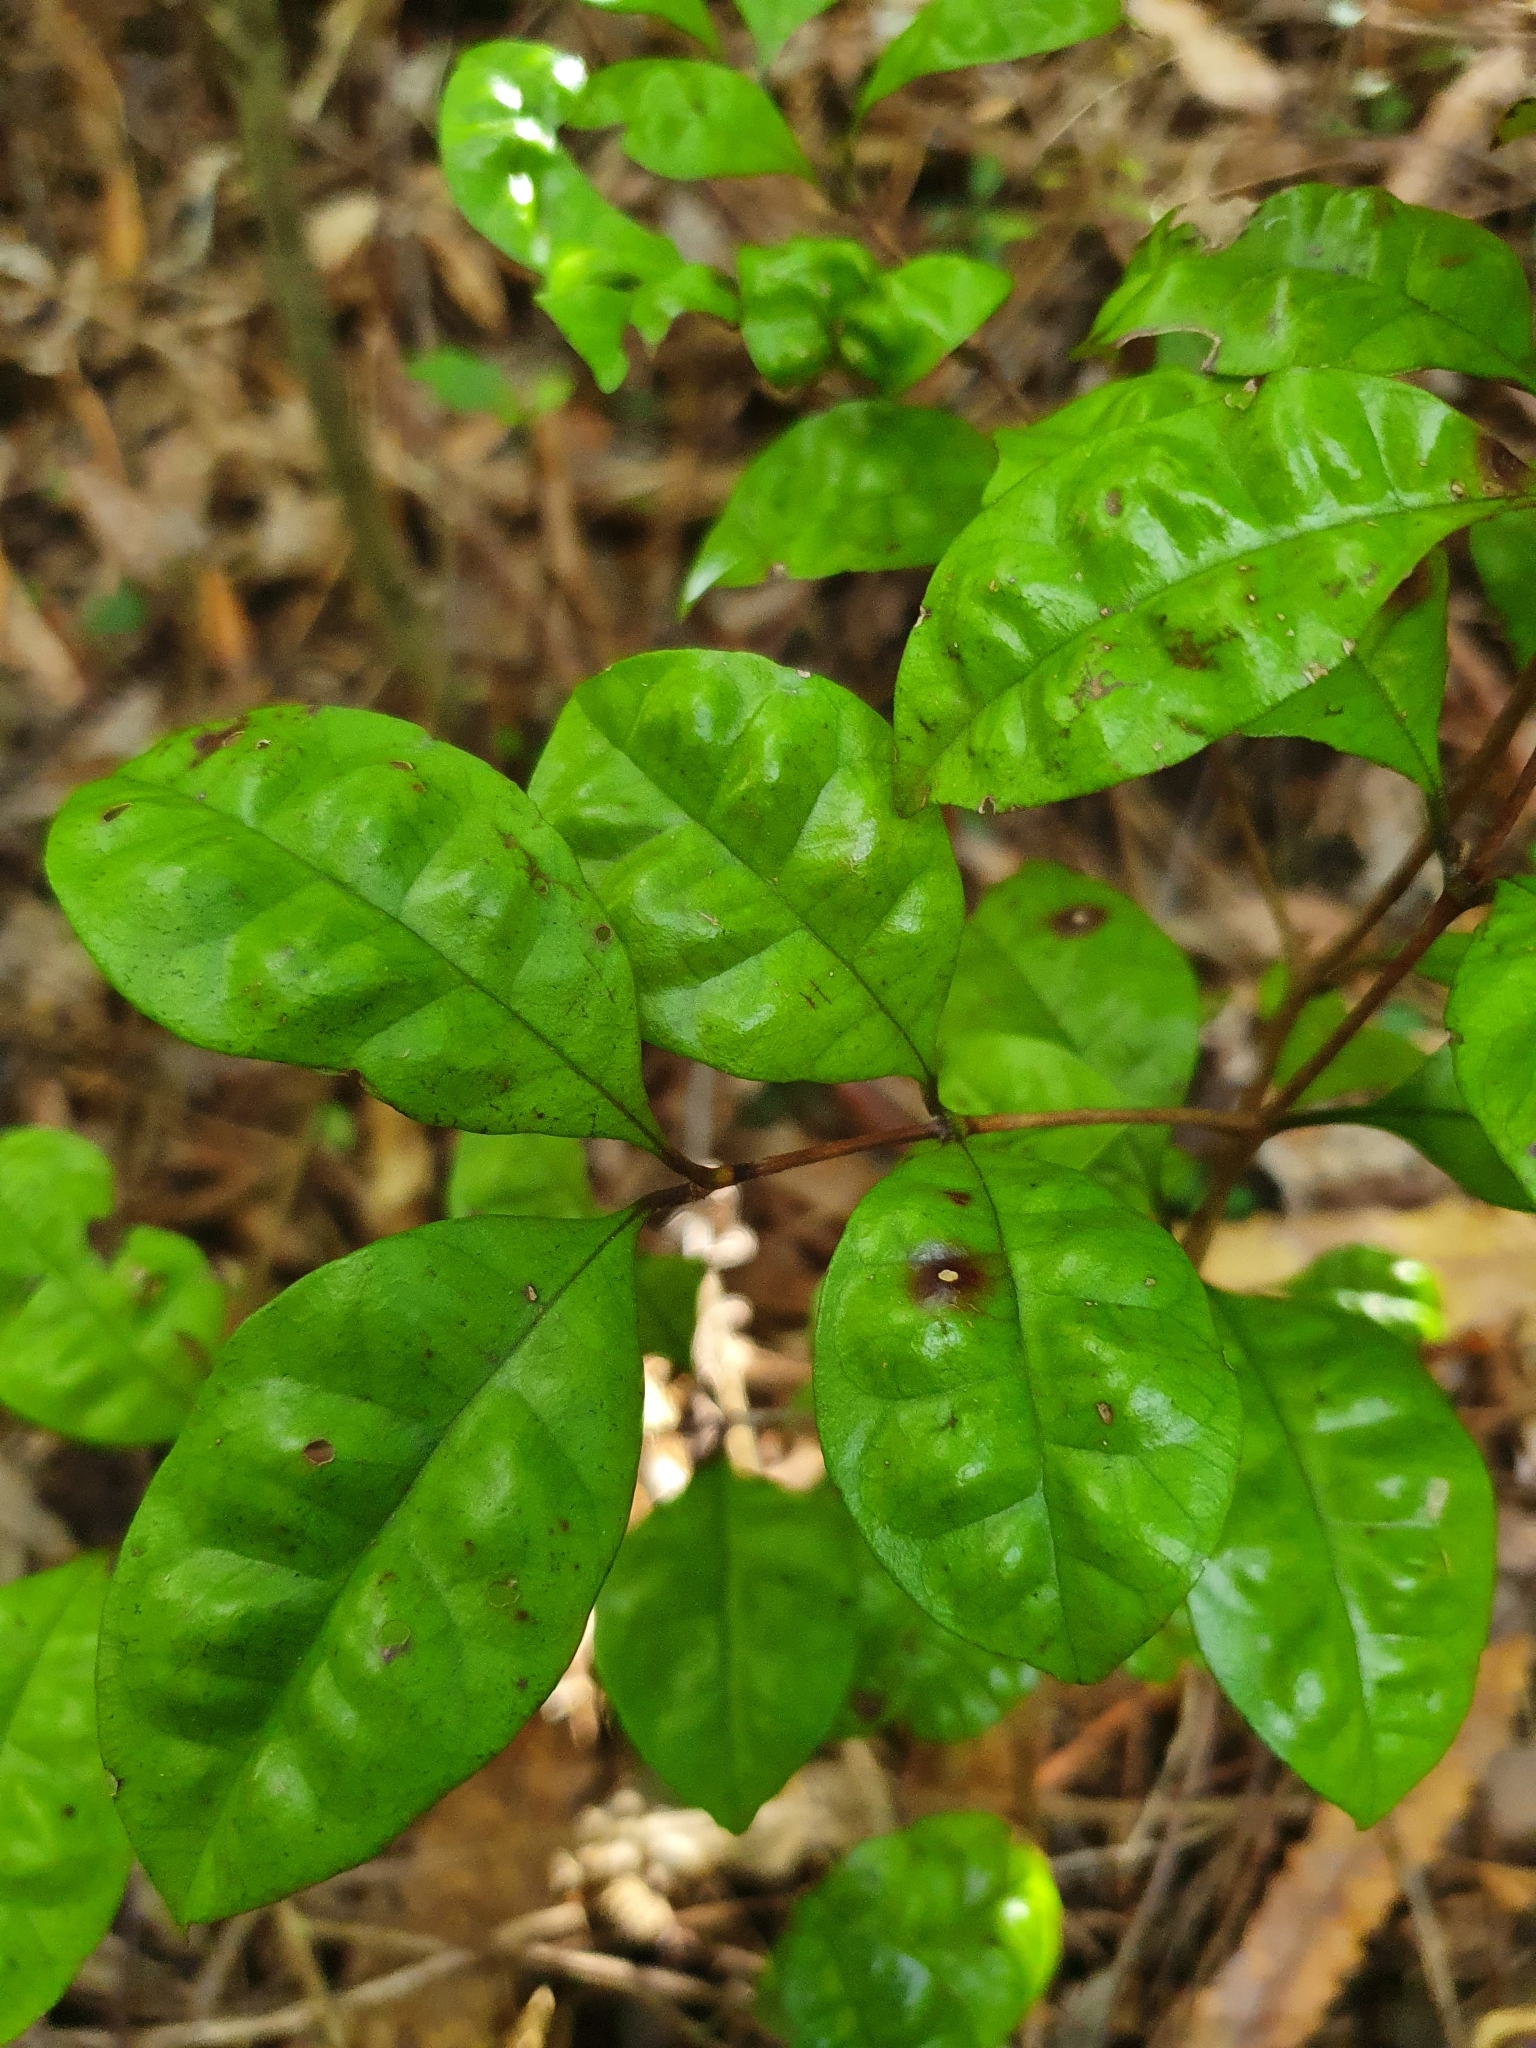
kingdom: Plantae
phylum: Tracheophyta
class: Magnoliopsida
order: Myrtales
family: Myrtaceae
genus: Lophomyrtus
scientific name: Lophomyrtus bullata
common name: Rama rama
